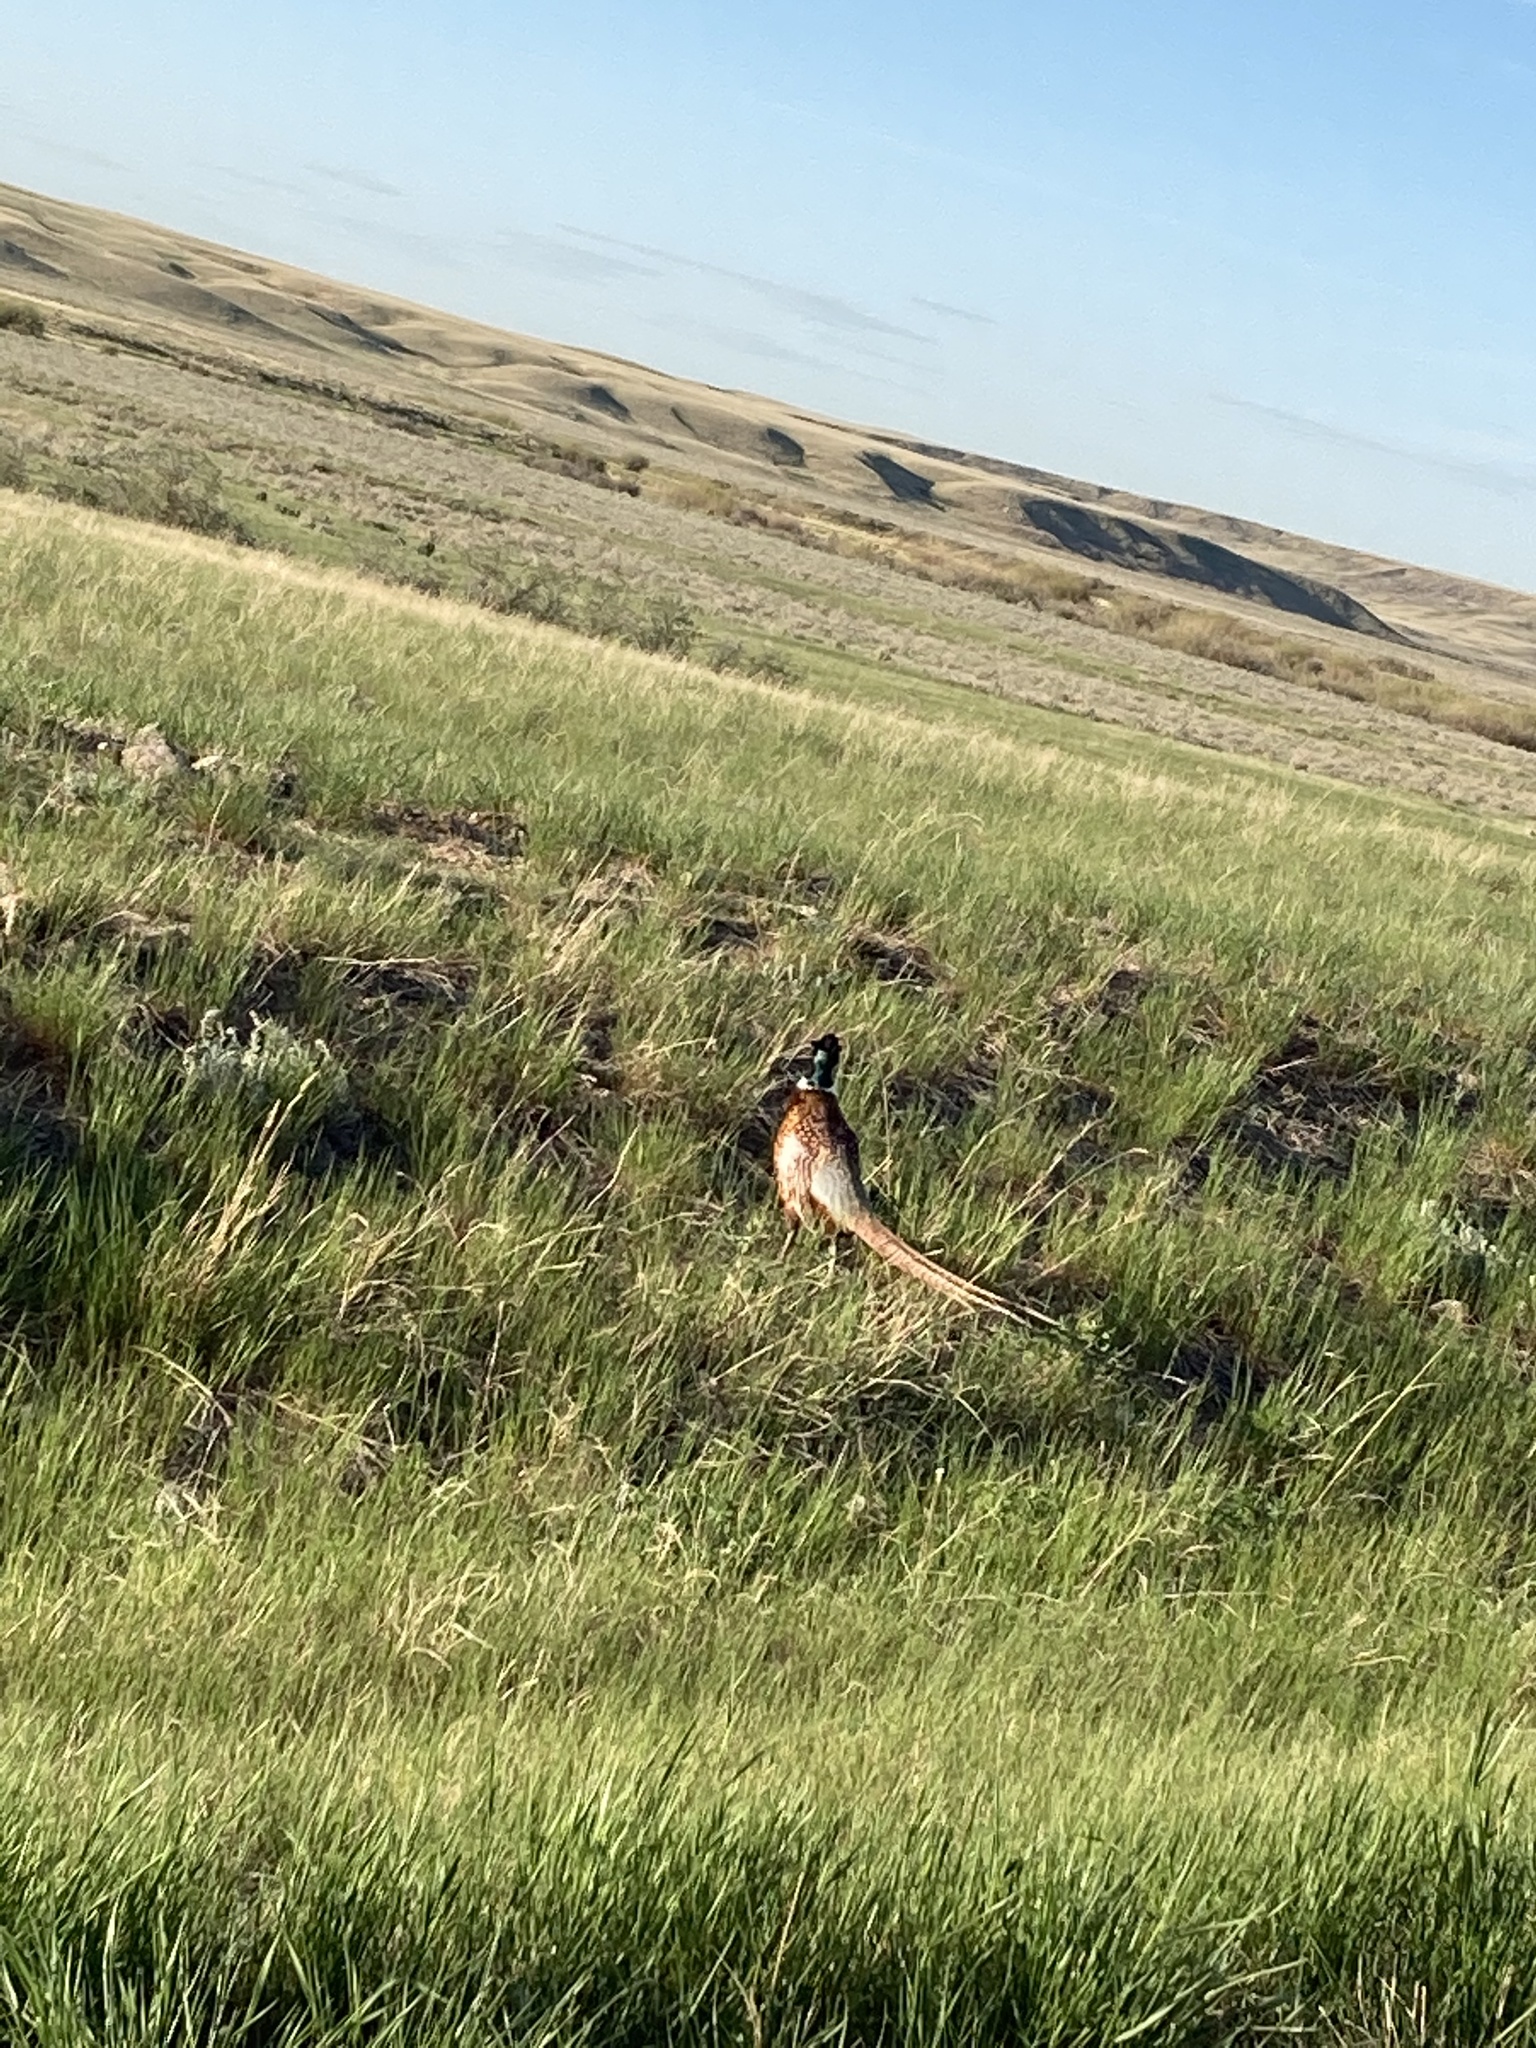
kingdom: Animalia
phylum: Chordata
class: Aves
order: Galliformes
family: Phasianidae
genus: Phasianus
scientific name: Phasianus colchicus
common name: Common pheasant
